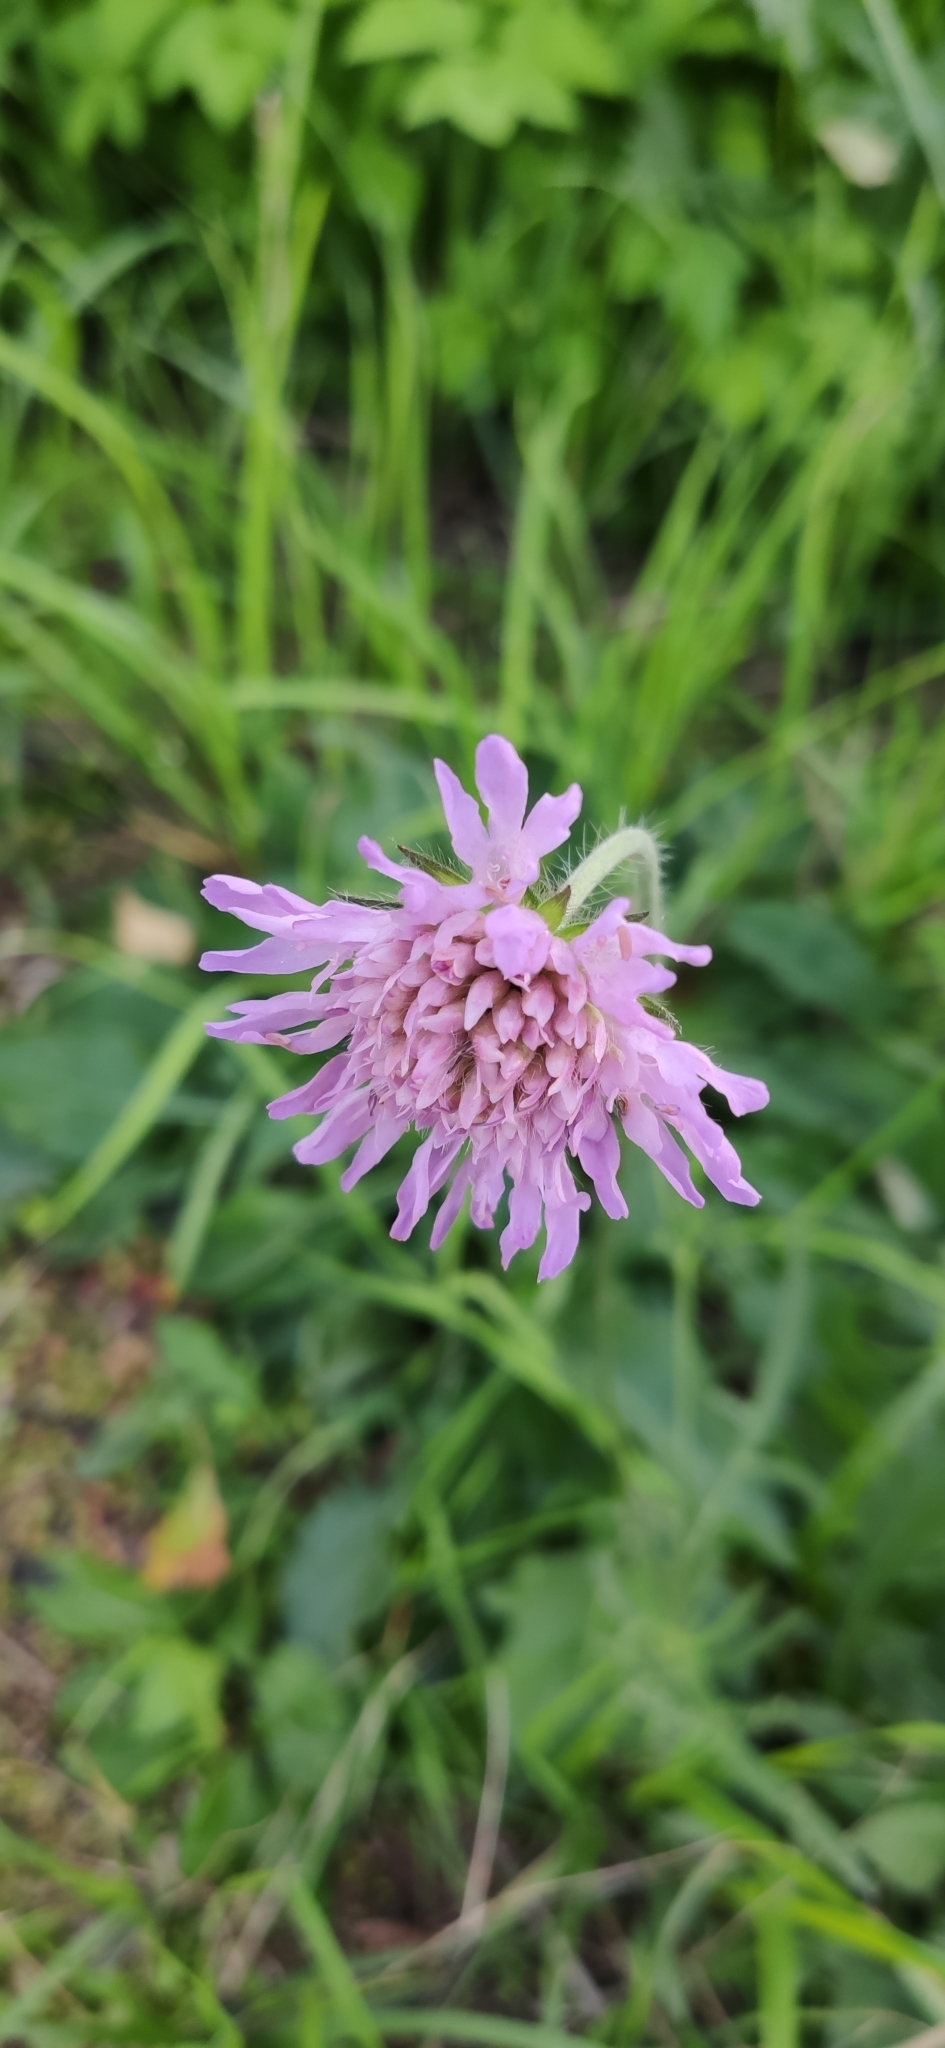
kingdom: Plantae
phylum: Tracheophyta
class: Magnoliopsida
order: Dipsacales
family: Caprifoliaceae
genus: Knautia
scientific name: Knautia arvensis
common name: Field scabiosa
